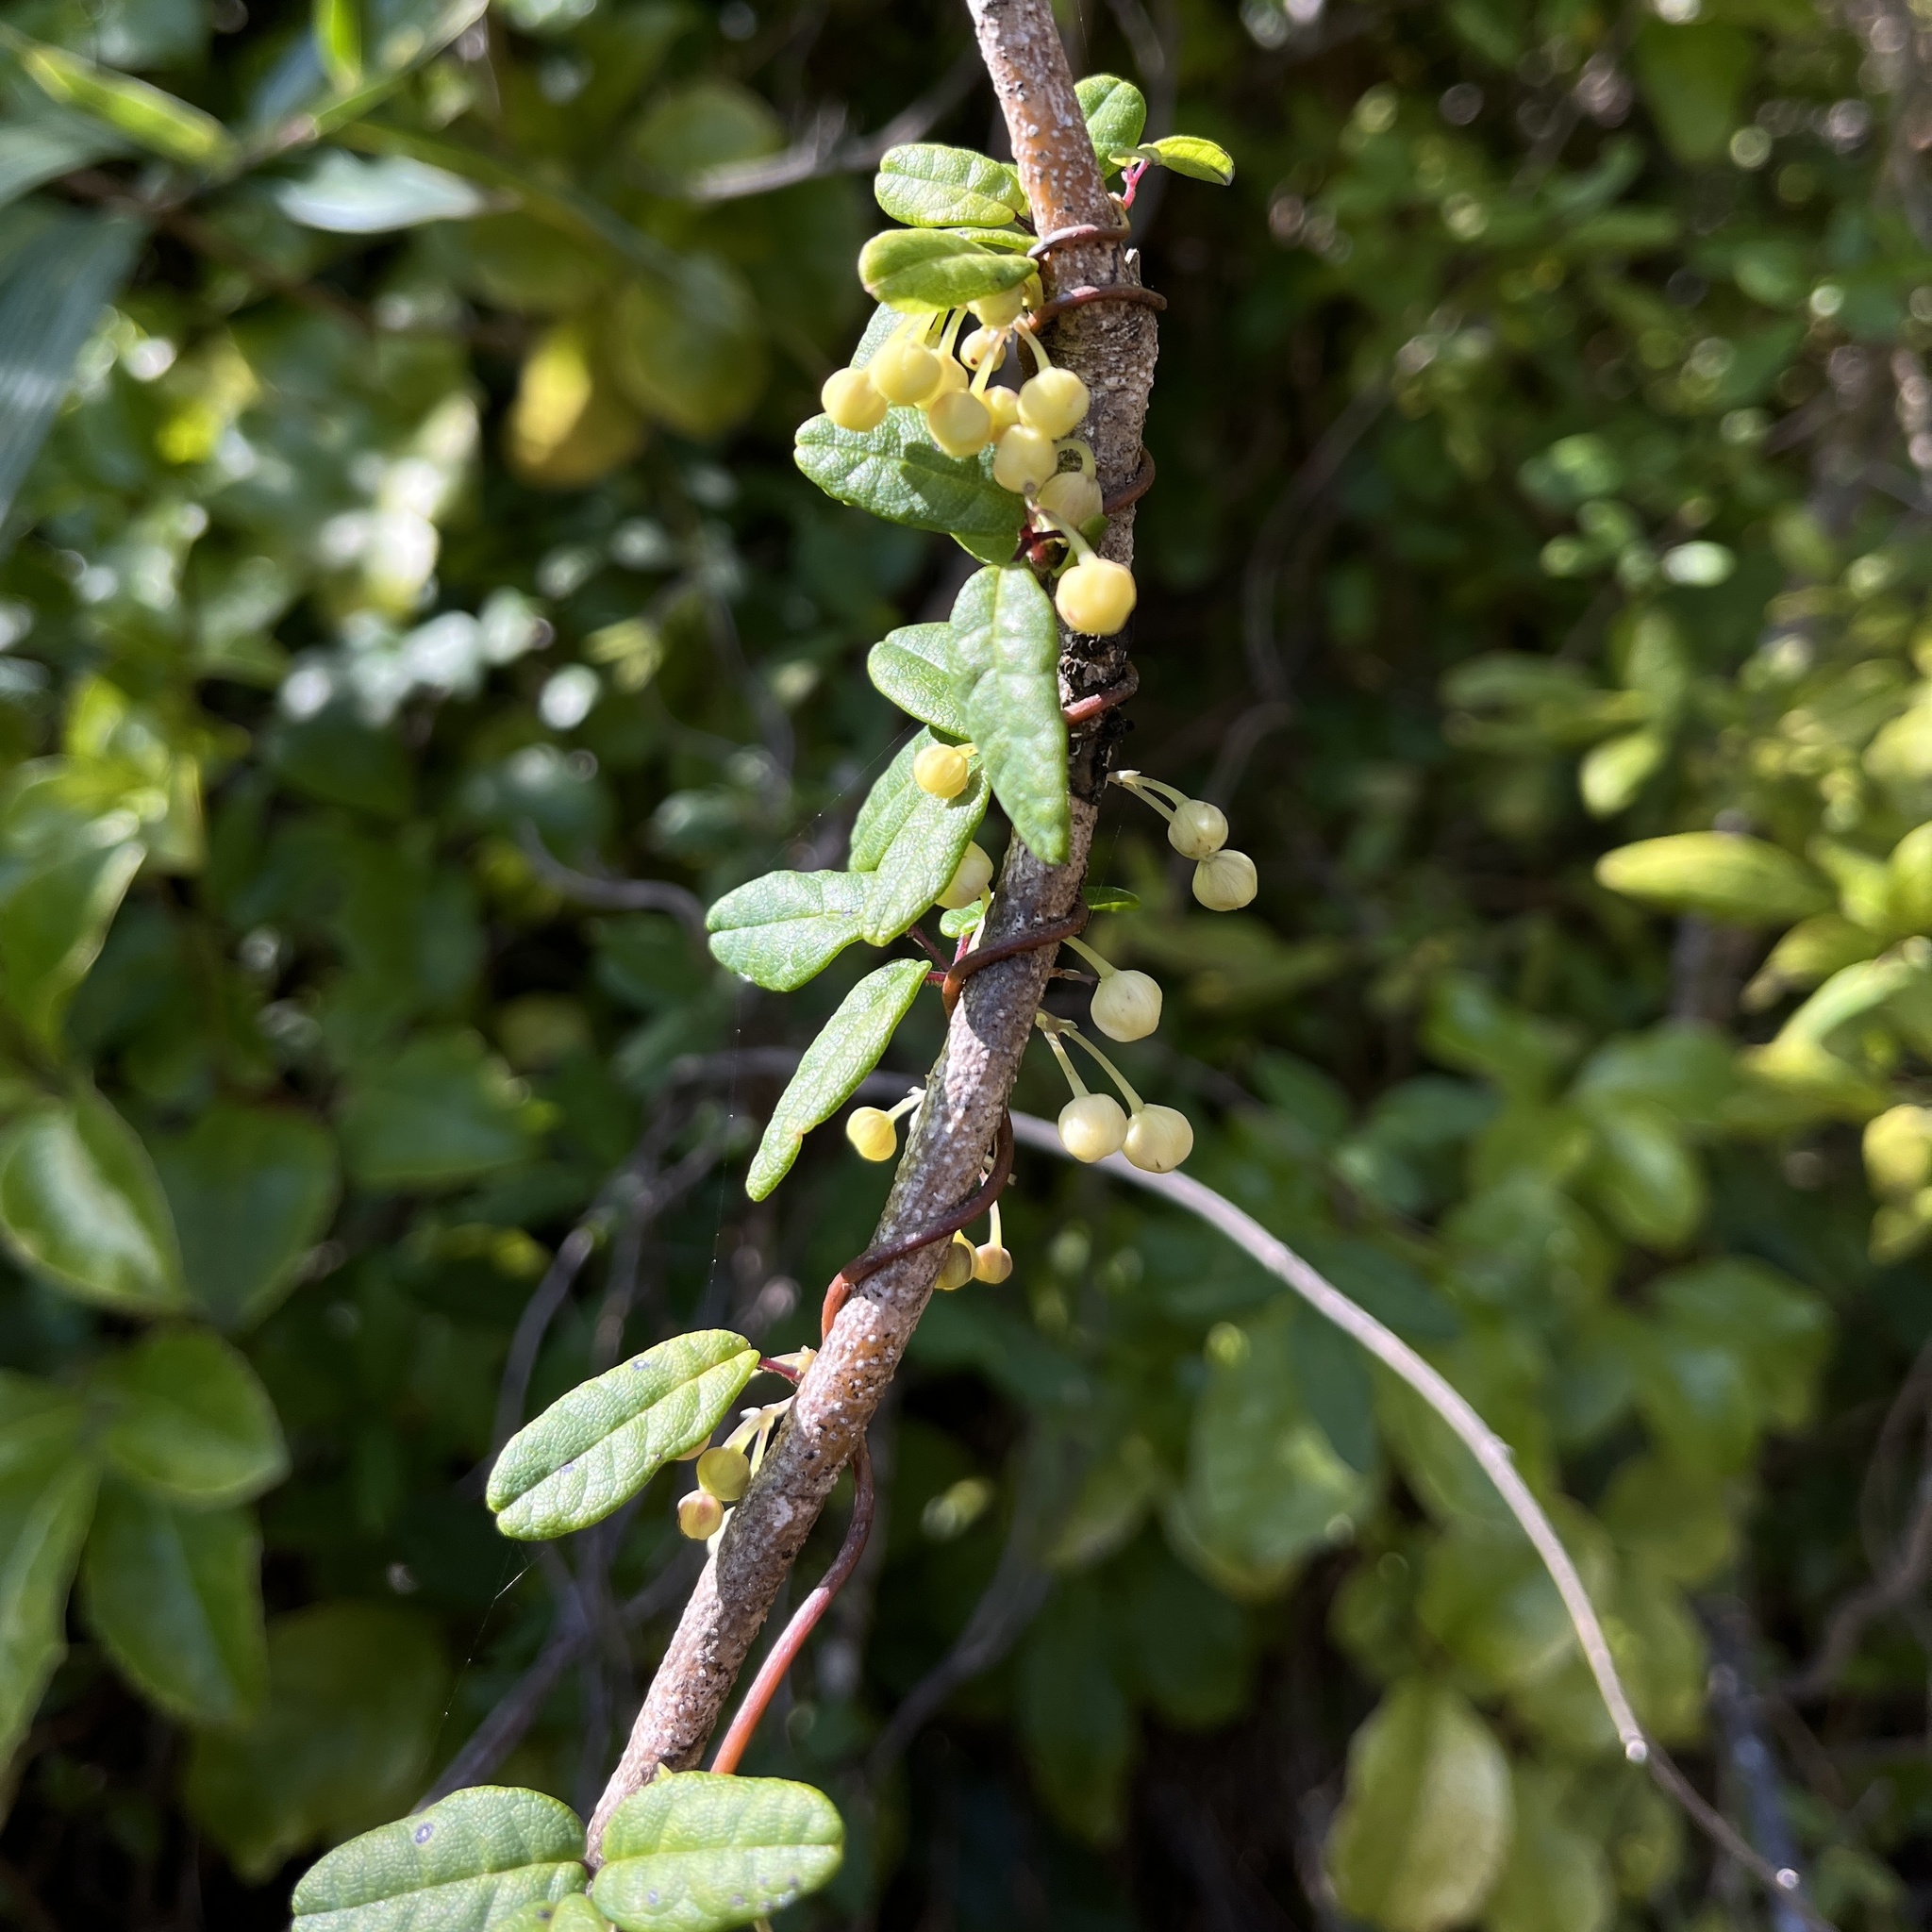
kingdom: Plantae
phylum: Tracheophyta
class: Magnoliopsida
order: Ranunculales
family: Lardizabalaceae
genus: Boquila
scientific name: Boquila trifoliolata
